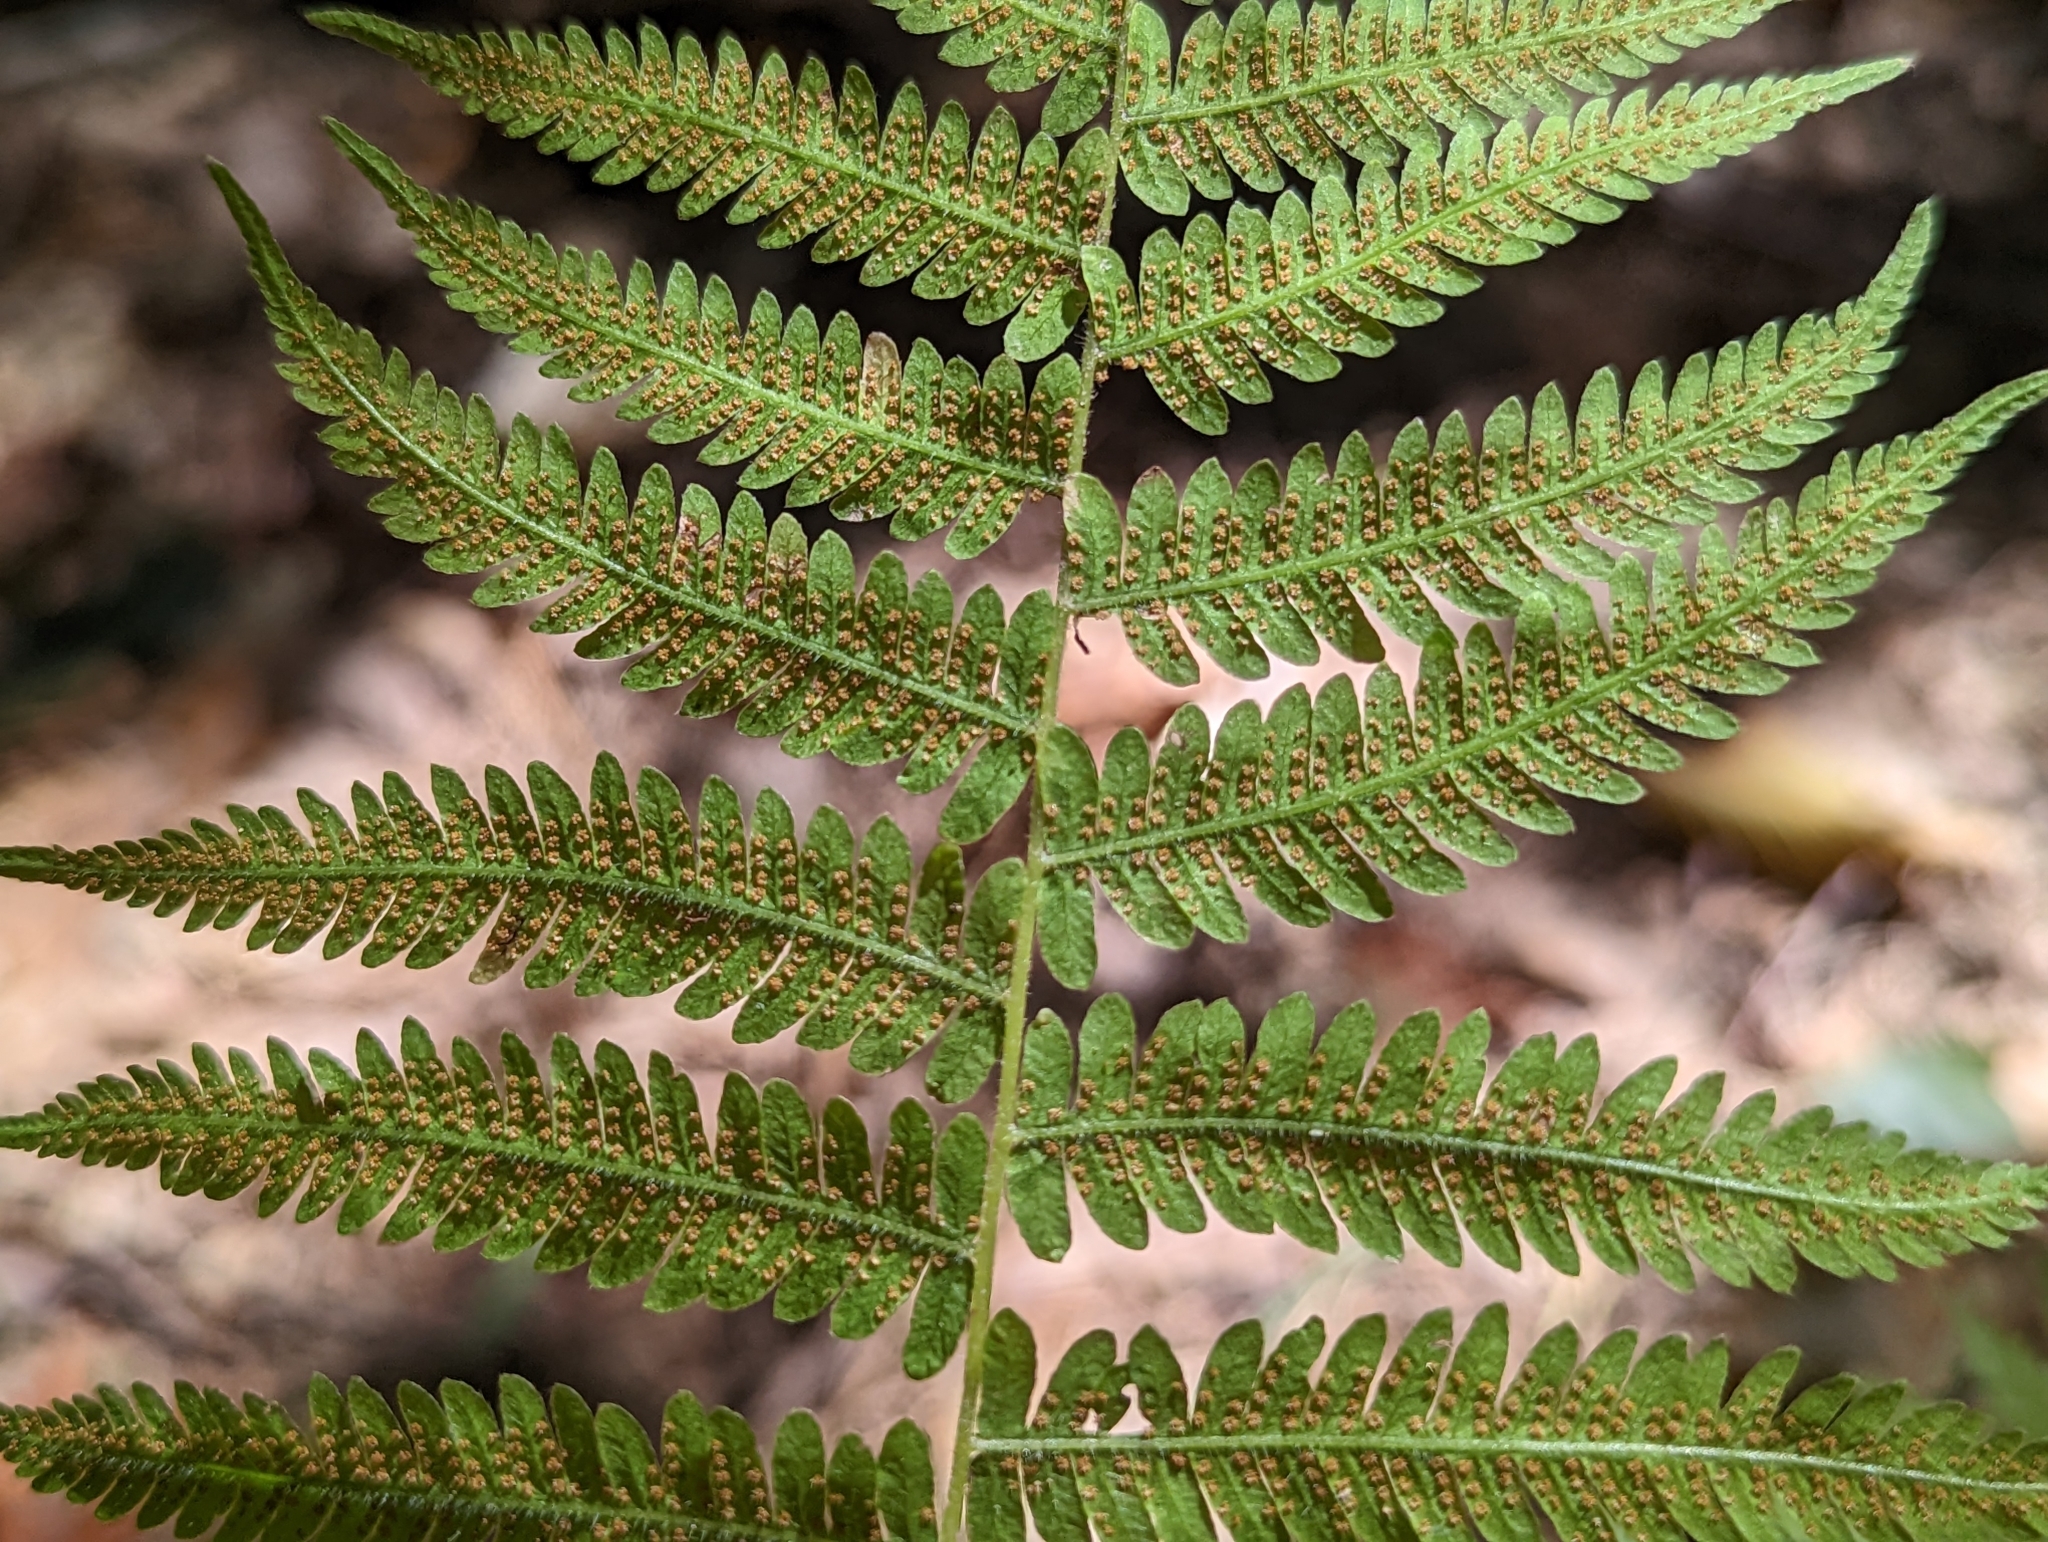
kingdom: Plantae
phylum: Tracheophyta
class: Polypodiopsida
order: Polypodiales
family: Thelypteridaceae
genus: Amauropelta
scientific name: Amauropelta noveboracensis
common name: New york fern
